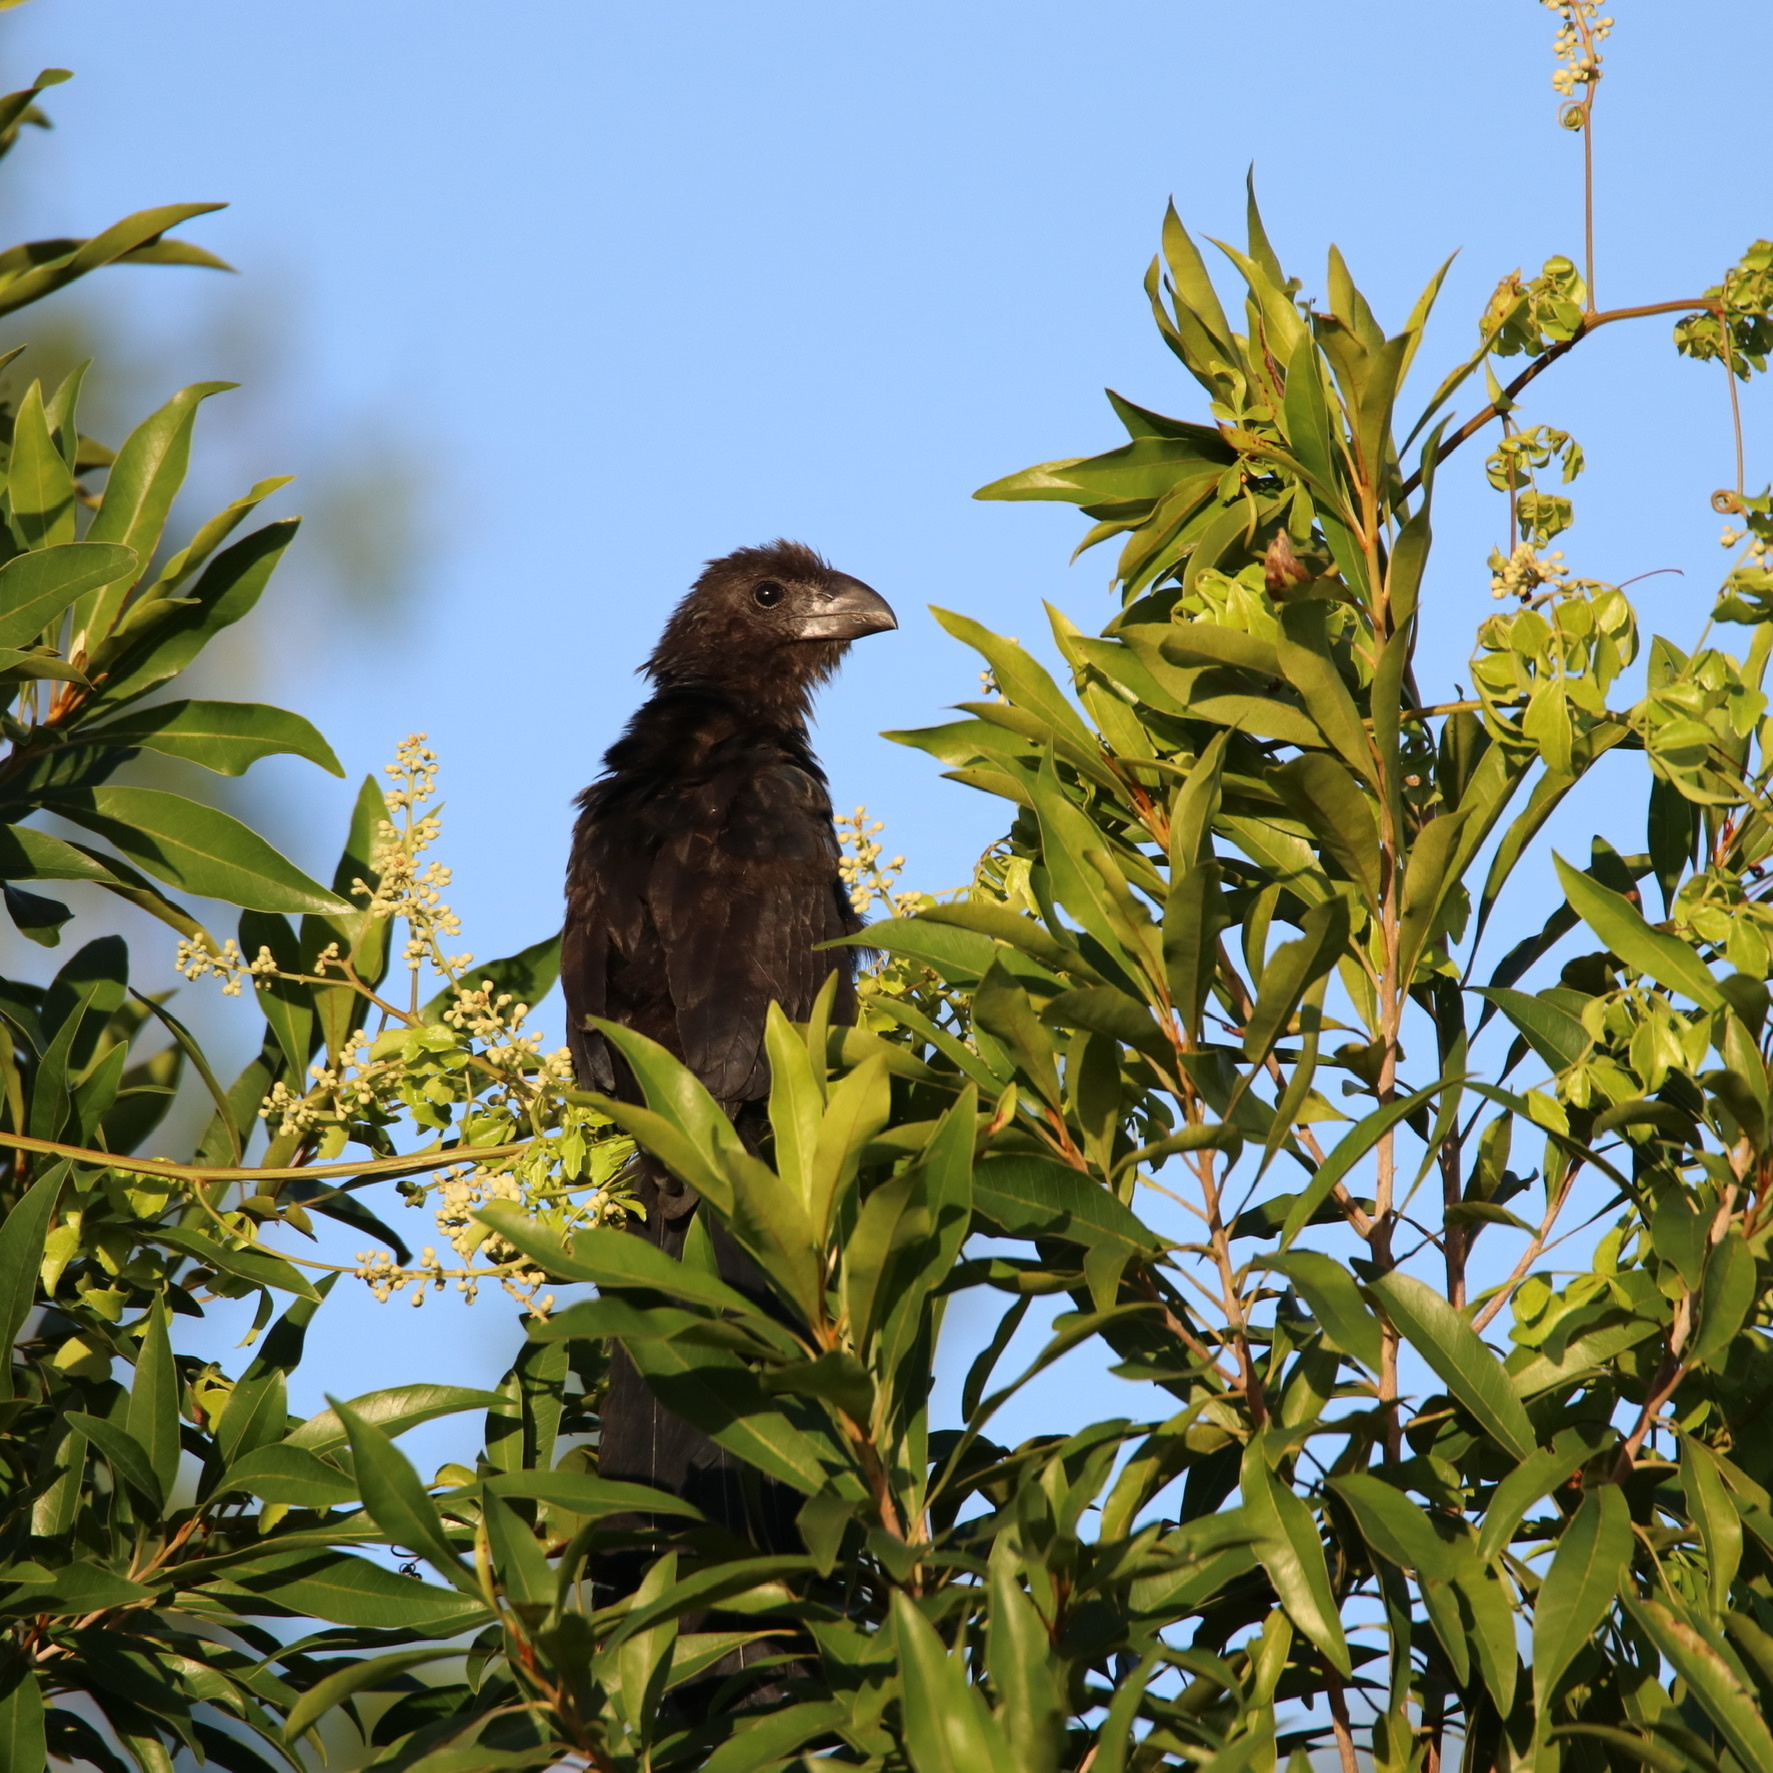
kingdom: Animalia
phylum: Chordata
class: Aves
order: Cuculiformes
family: Cuculidae
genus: Crotophaga
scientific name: Crotophaga ani
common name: Smooth-billed ani
